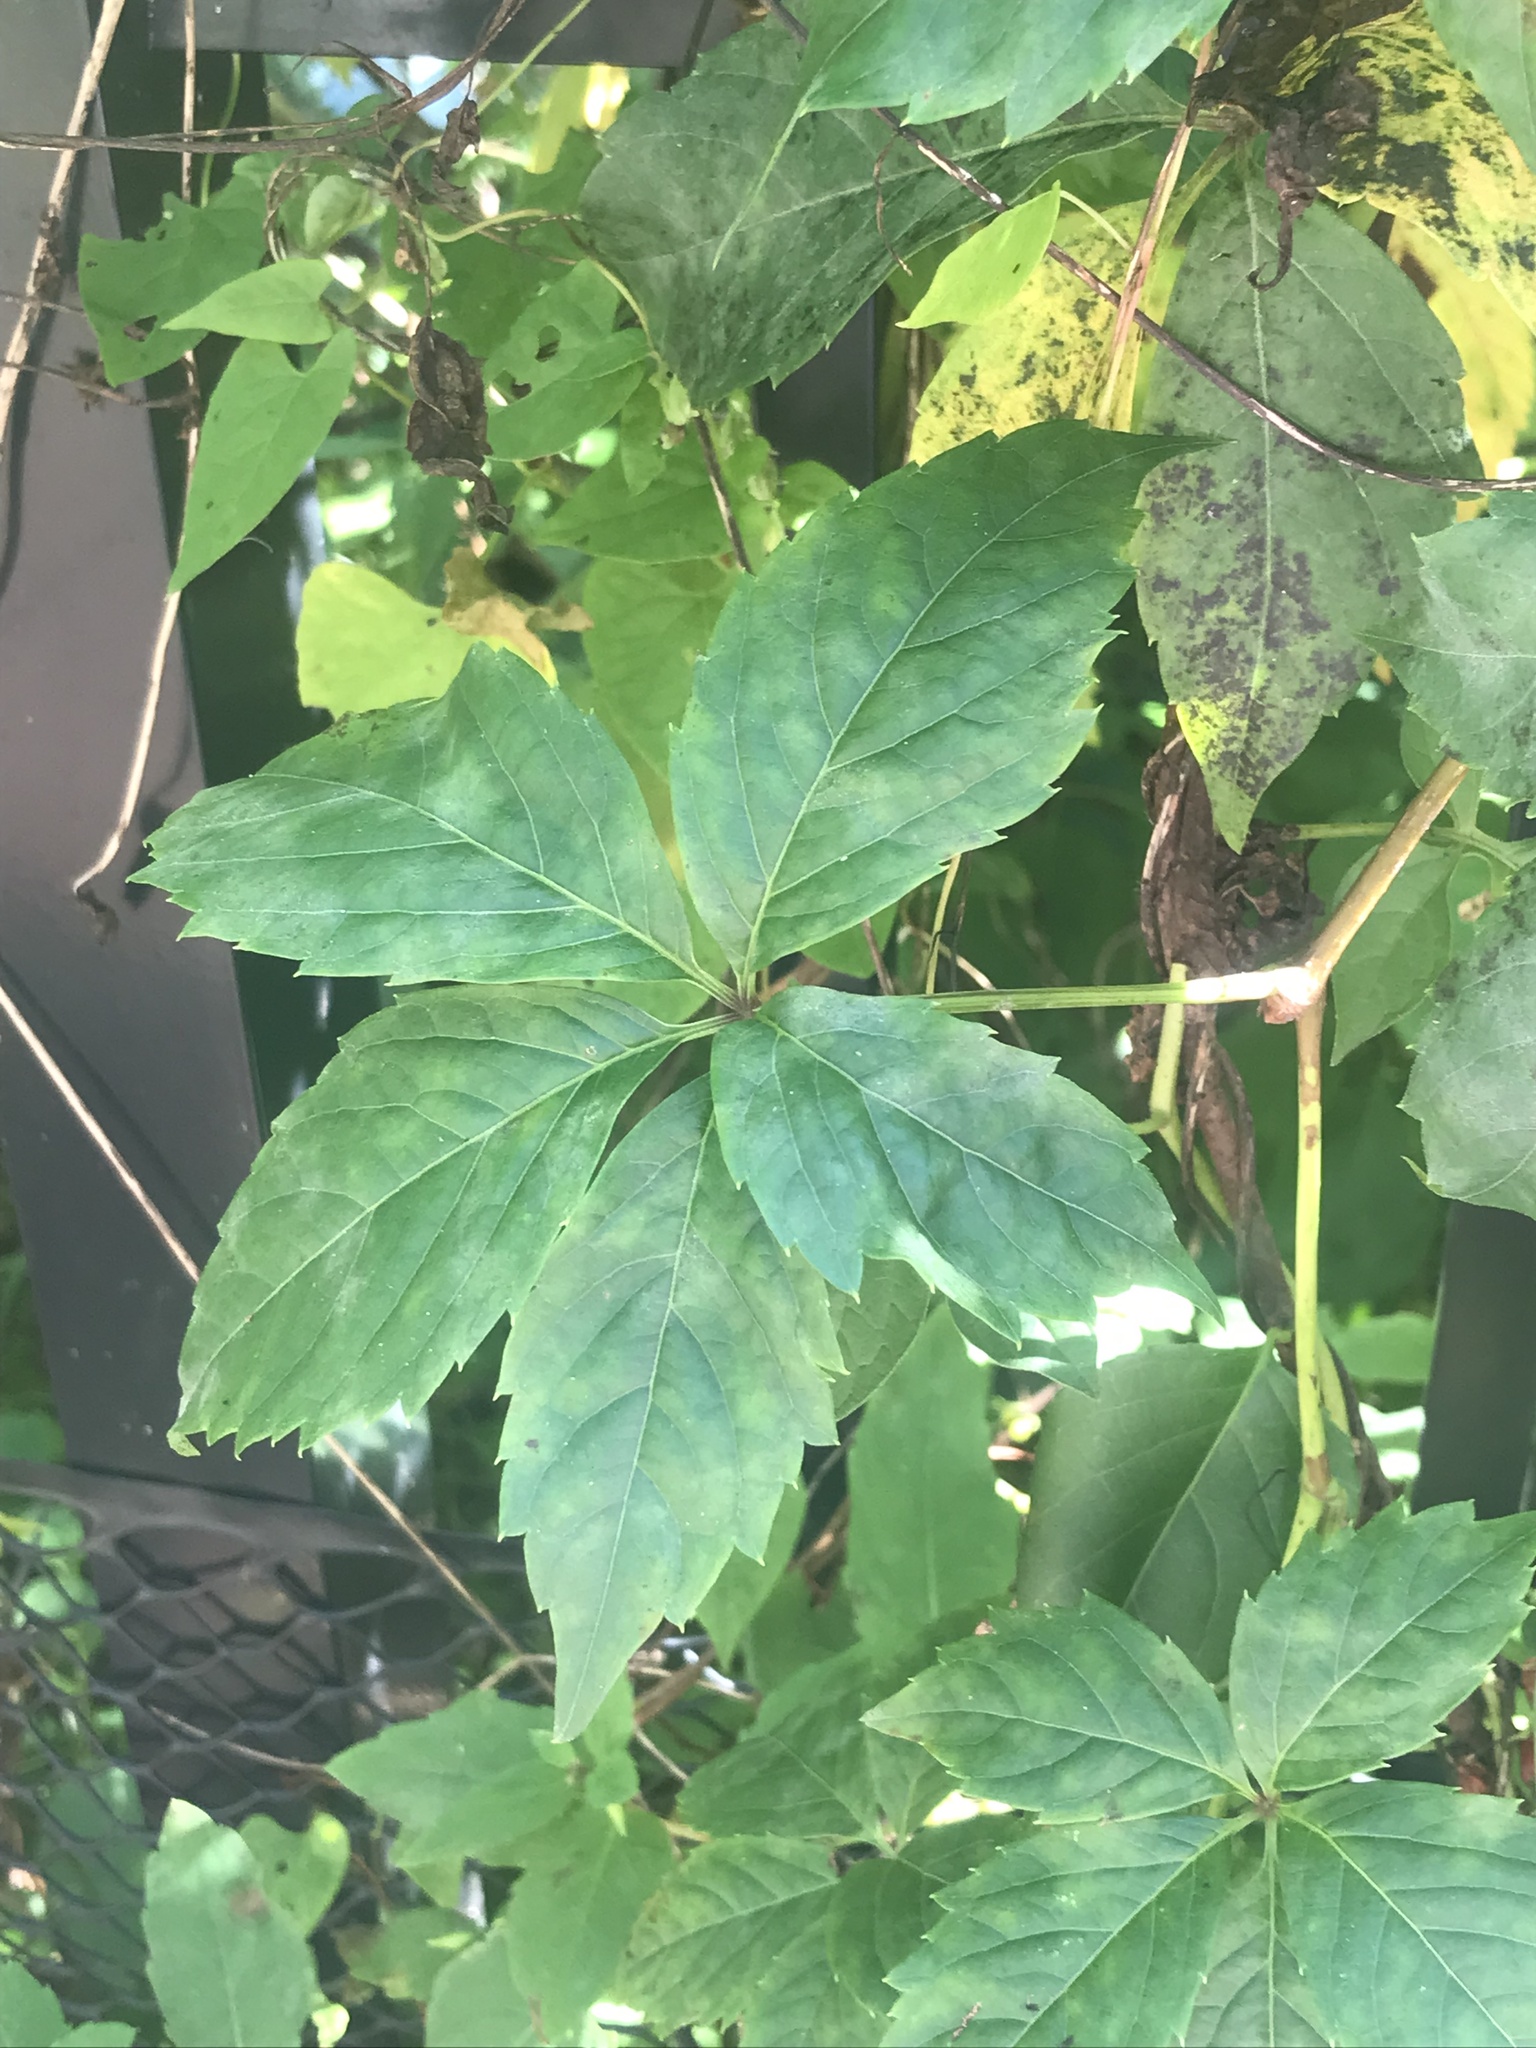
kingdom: Fungi
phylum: Ascomycota
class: Leotiomycetes
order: Helotiales
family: Erysiphaceae
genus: Erysiphe
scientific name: Erysiphe
